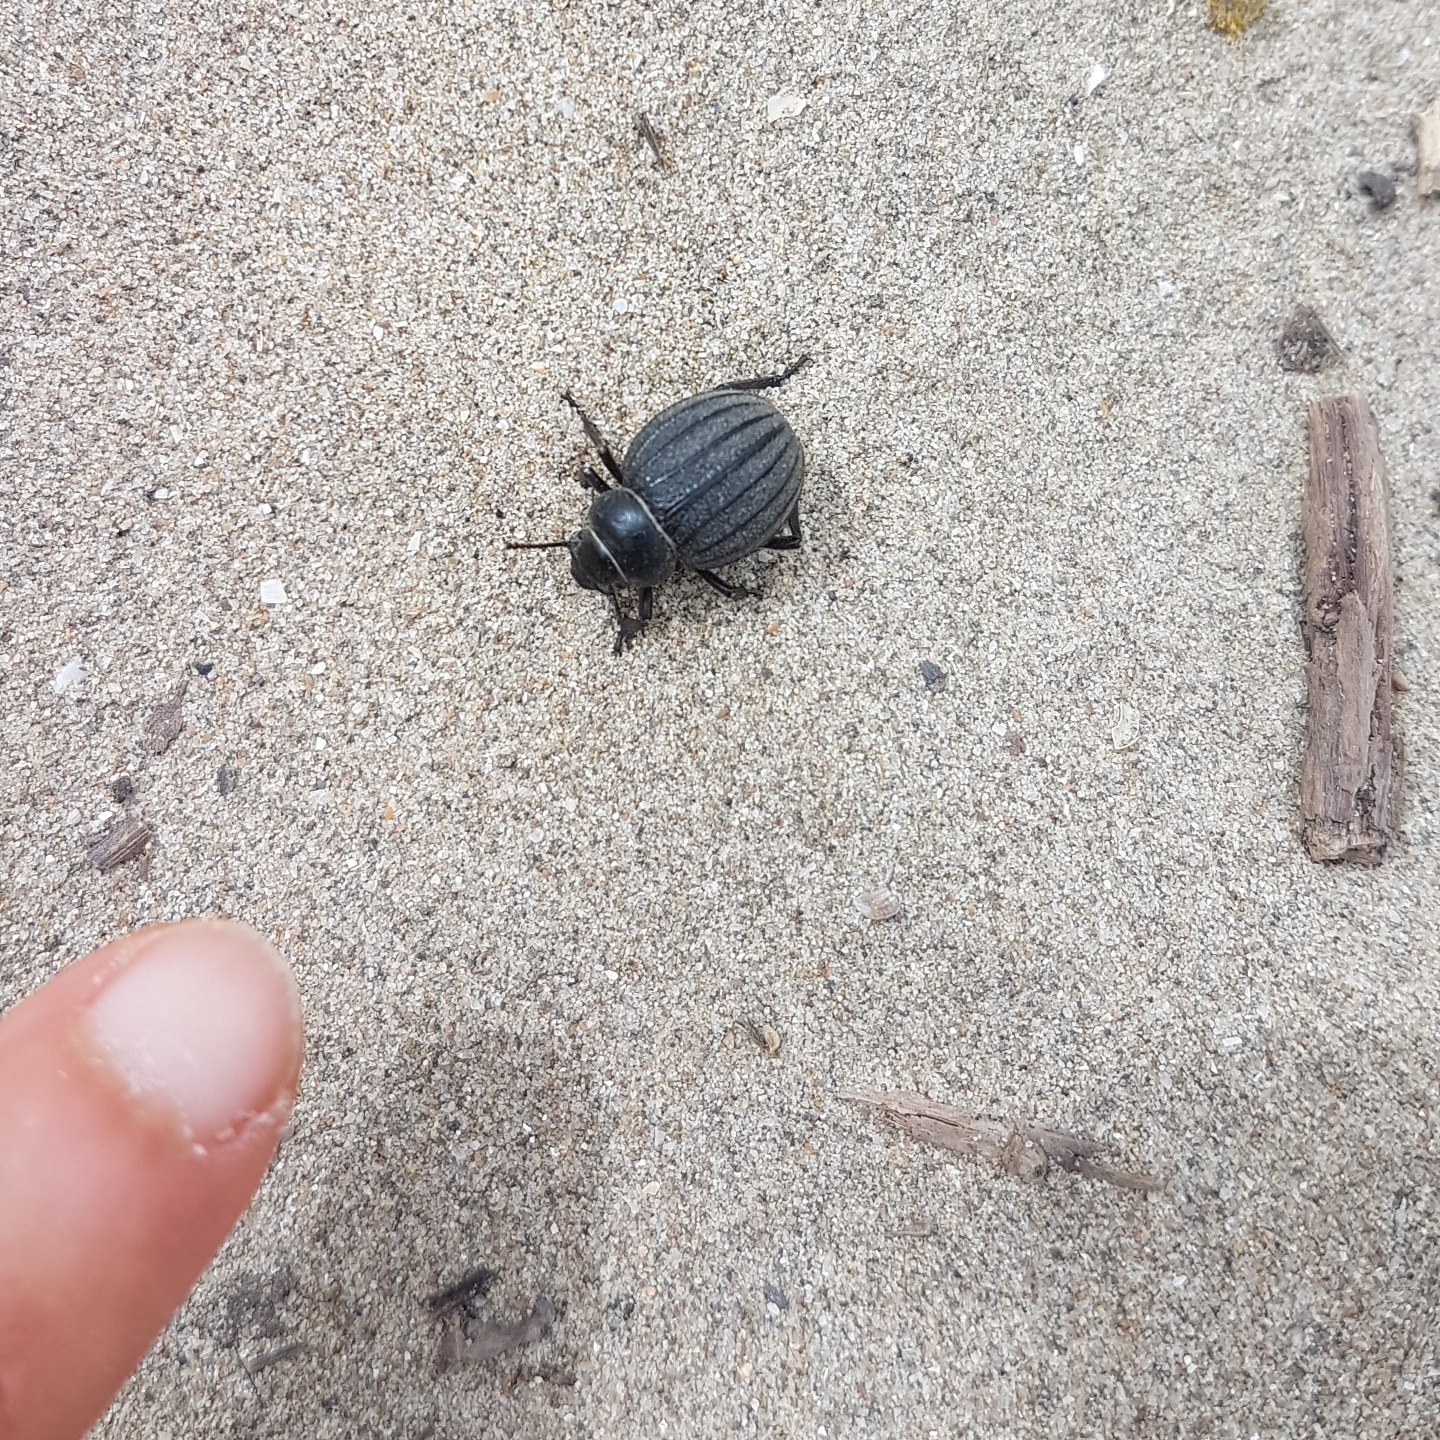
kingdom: Animalia
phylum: Arthropoda
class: Insecta
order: Coleoptera
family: Tenebrionidae
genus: Pimelia
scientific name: Pimelia muricata
